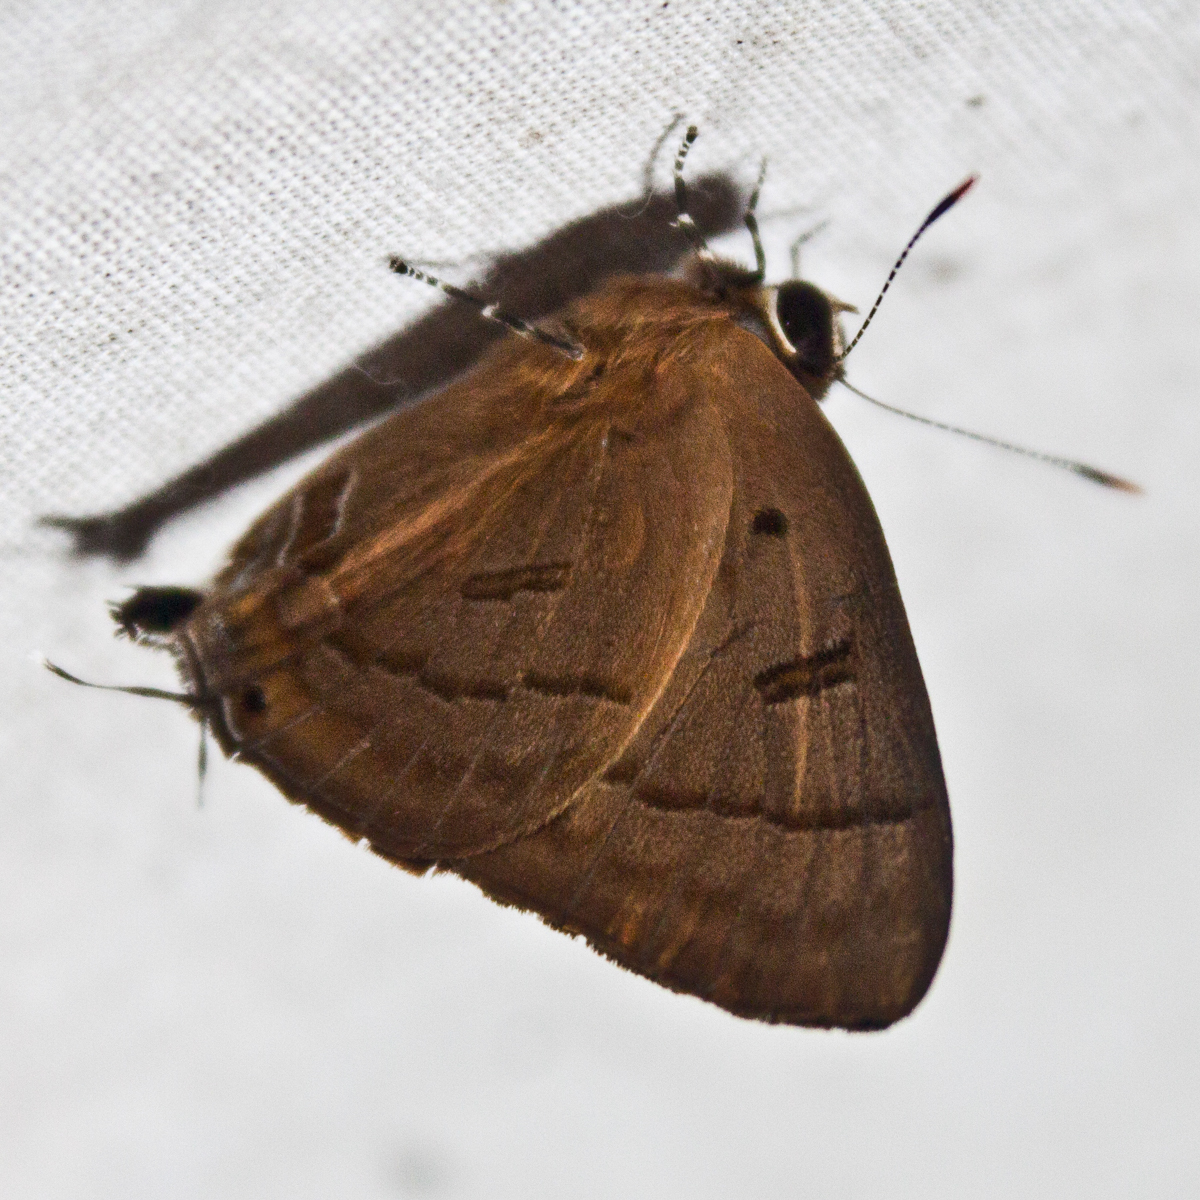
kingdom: Animalia
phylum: Arthropoda
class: Insecta
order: Lepidoptera
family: Lycaenidae
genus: Rapala
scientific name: Rapala pheretima
